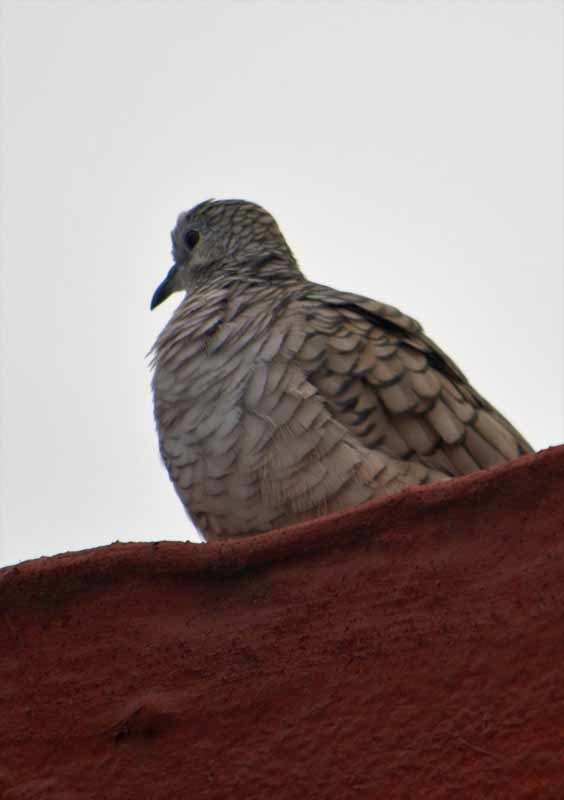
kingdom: Animalia
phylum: Chordata
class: Aves
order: Columbiformes
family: Columbidae
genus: Columbina
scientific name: Columbina inca
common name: Inca dove
